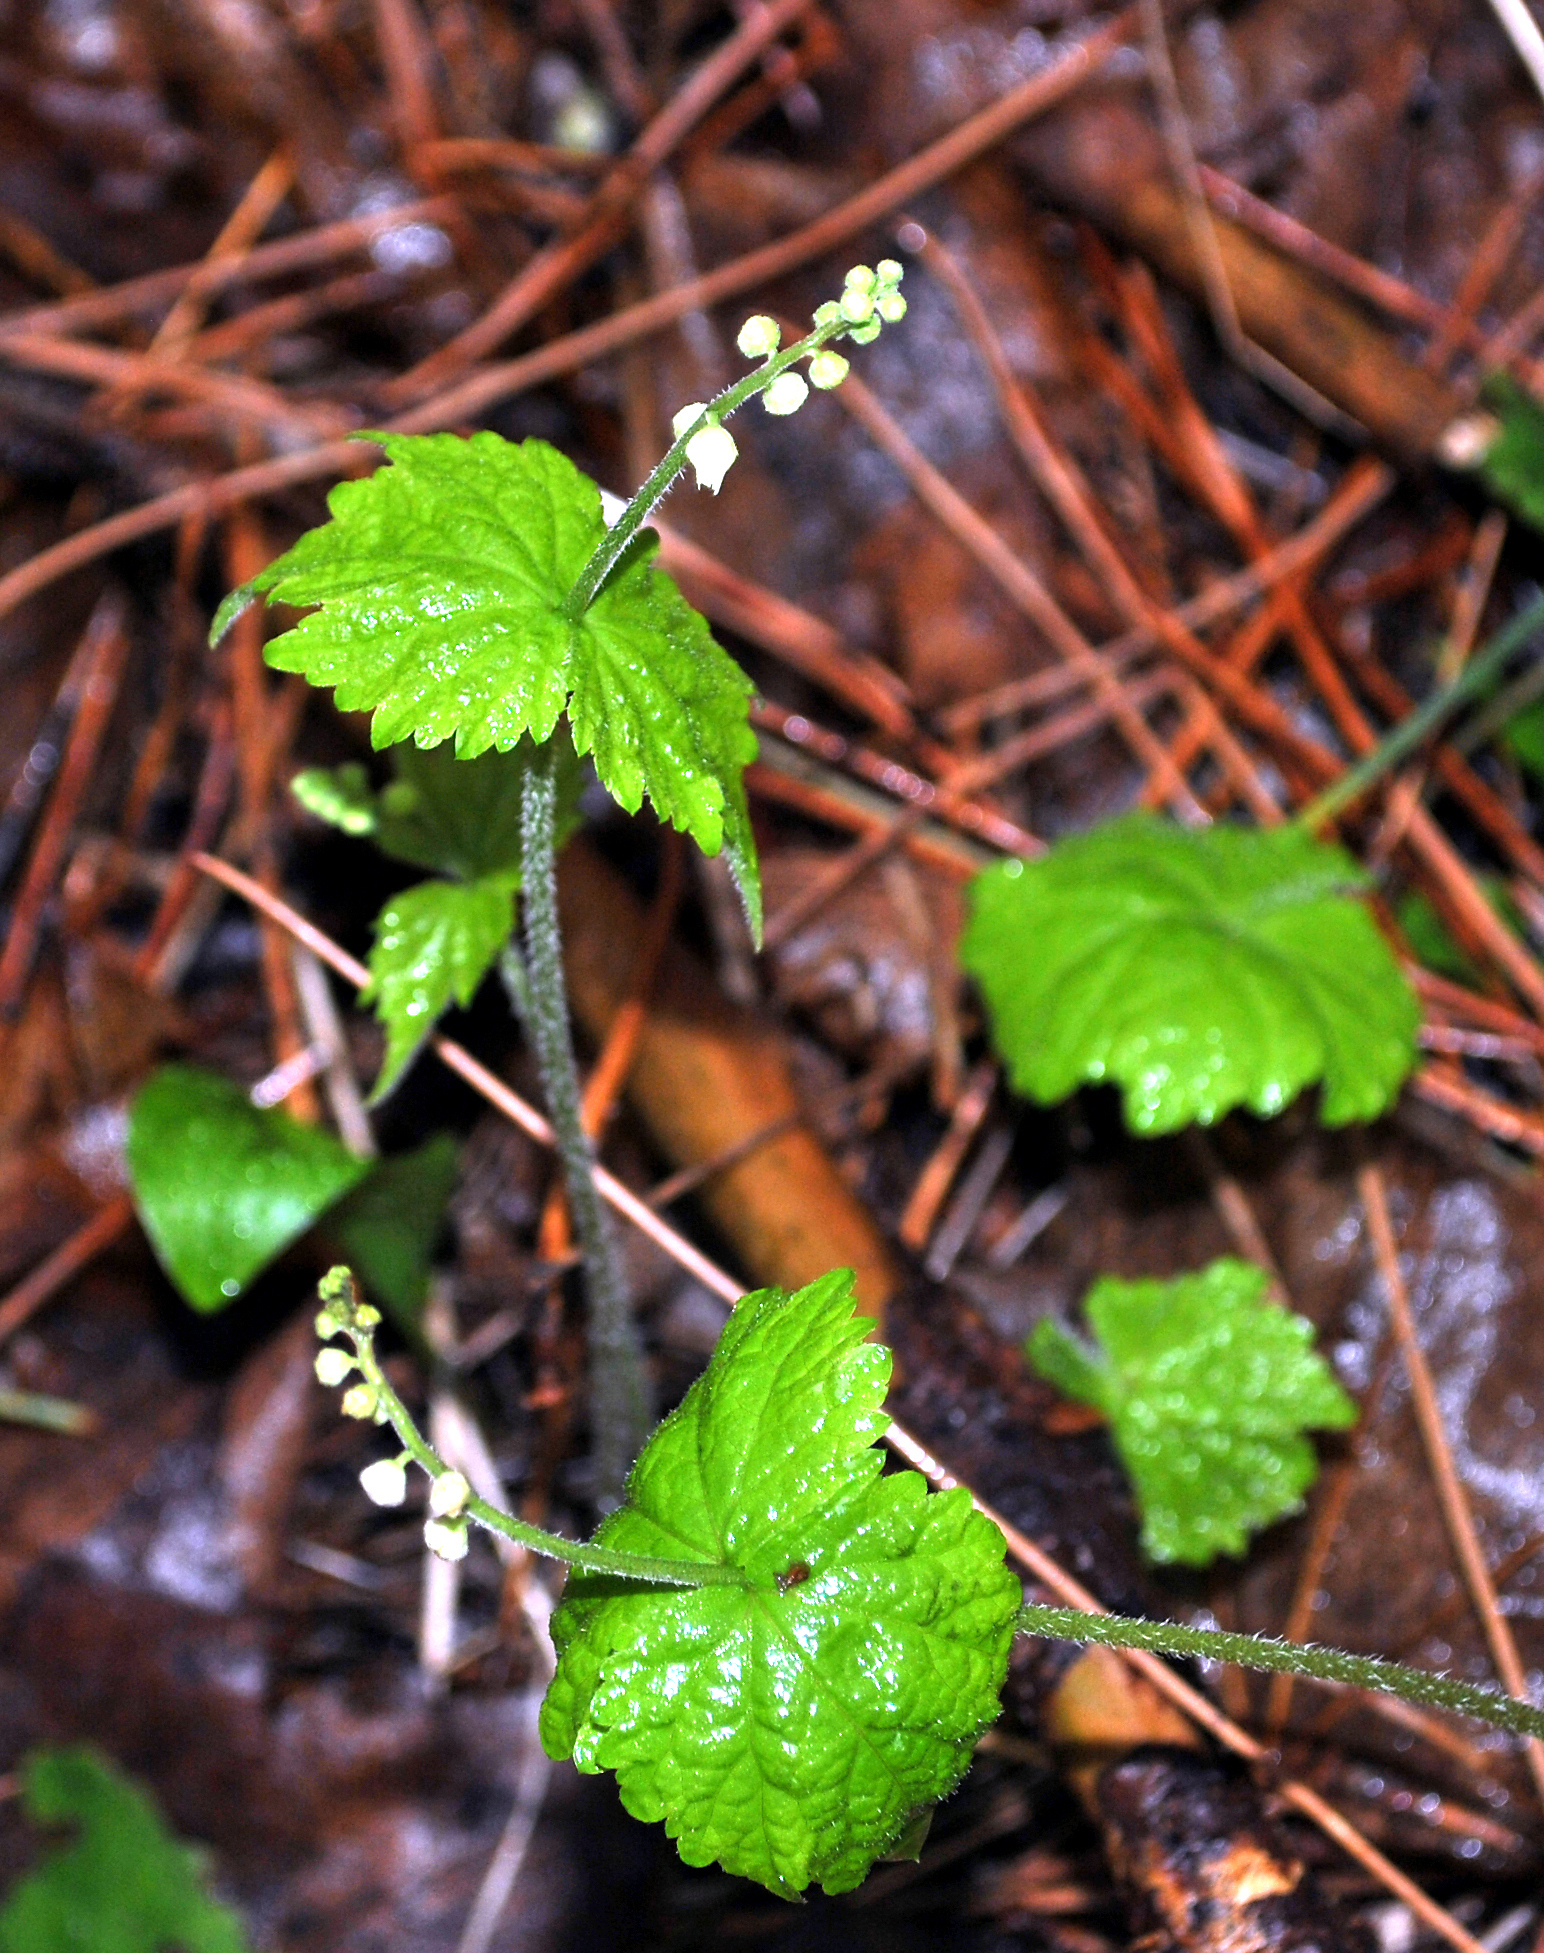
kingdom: Plantae
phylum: Tracheophyta
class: Magnoliopsida
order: Saxifragales
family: Saxifragaceae
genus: Mitella
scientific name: Mitella diphylla
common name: Coolwort
